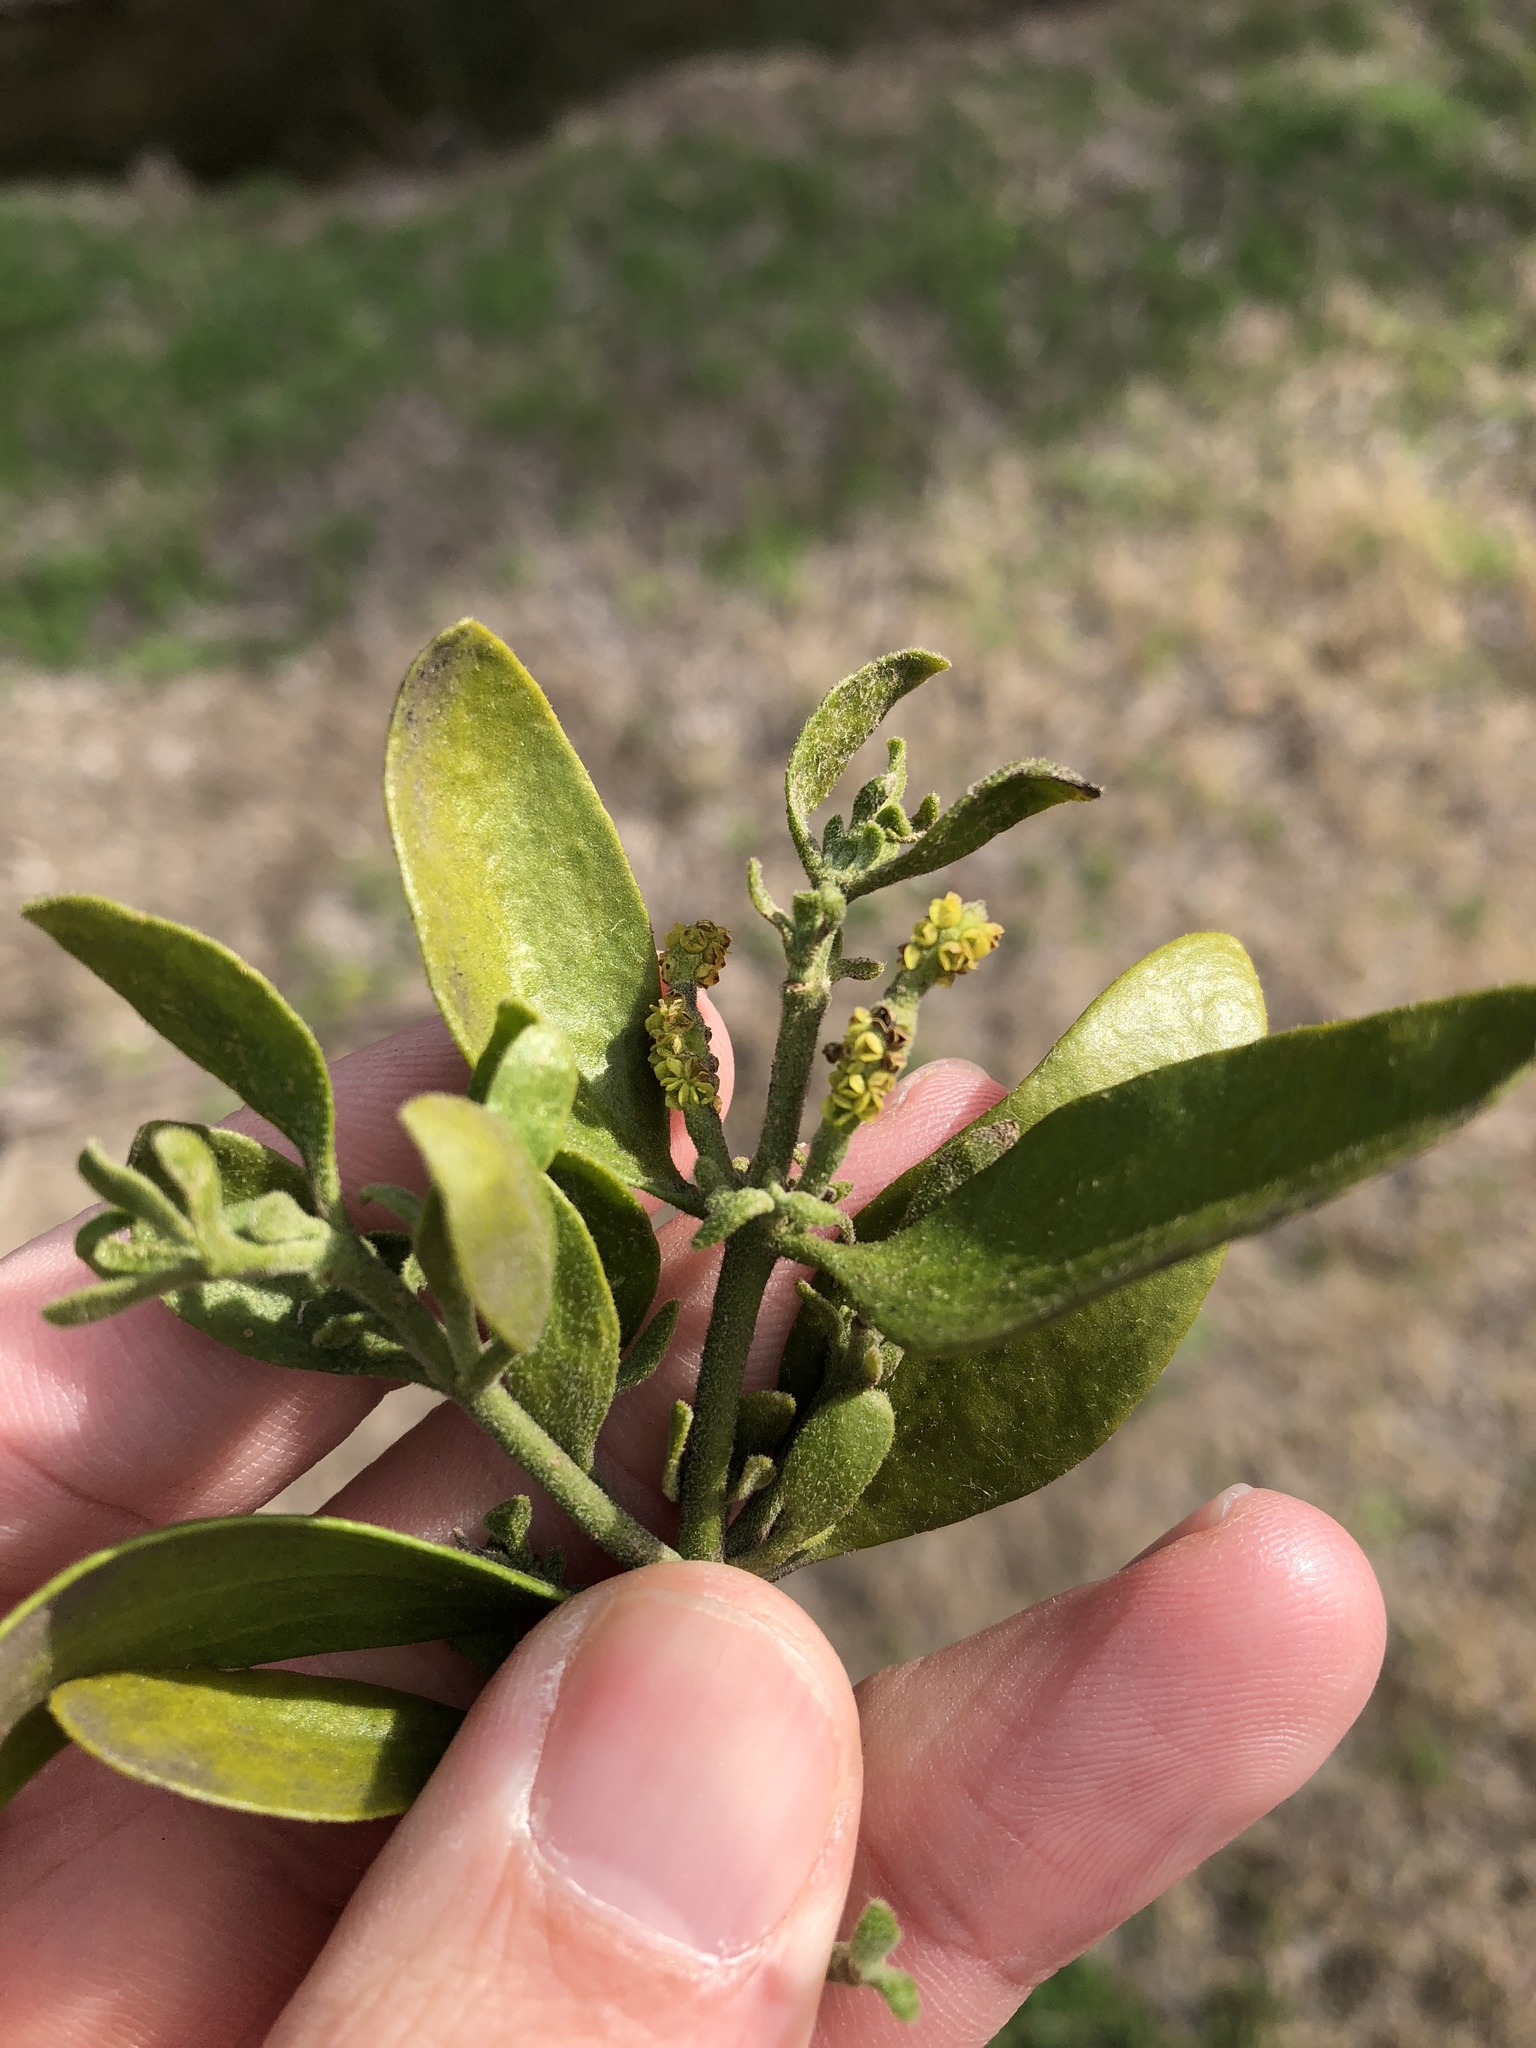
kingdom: Plantae
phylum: Tracheophyta
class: Magnoliopsida
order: Santalales
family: Viscaceae
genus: Phoradendron
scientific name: Phoradendron leucarpum
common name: Pacific mistletoe
